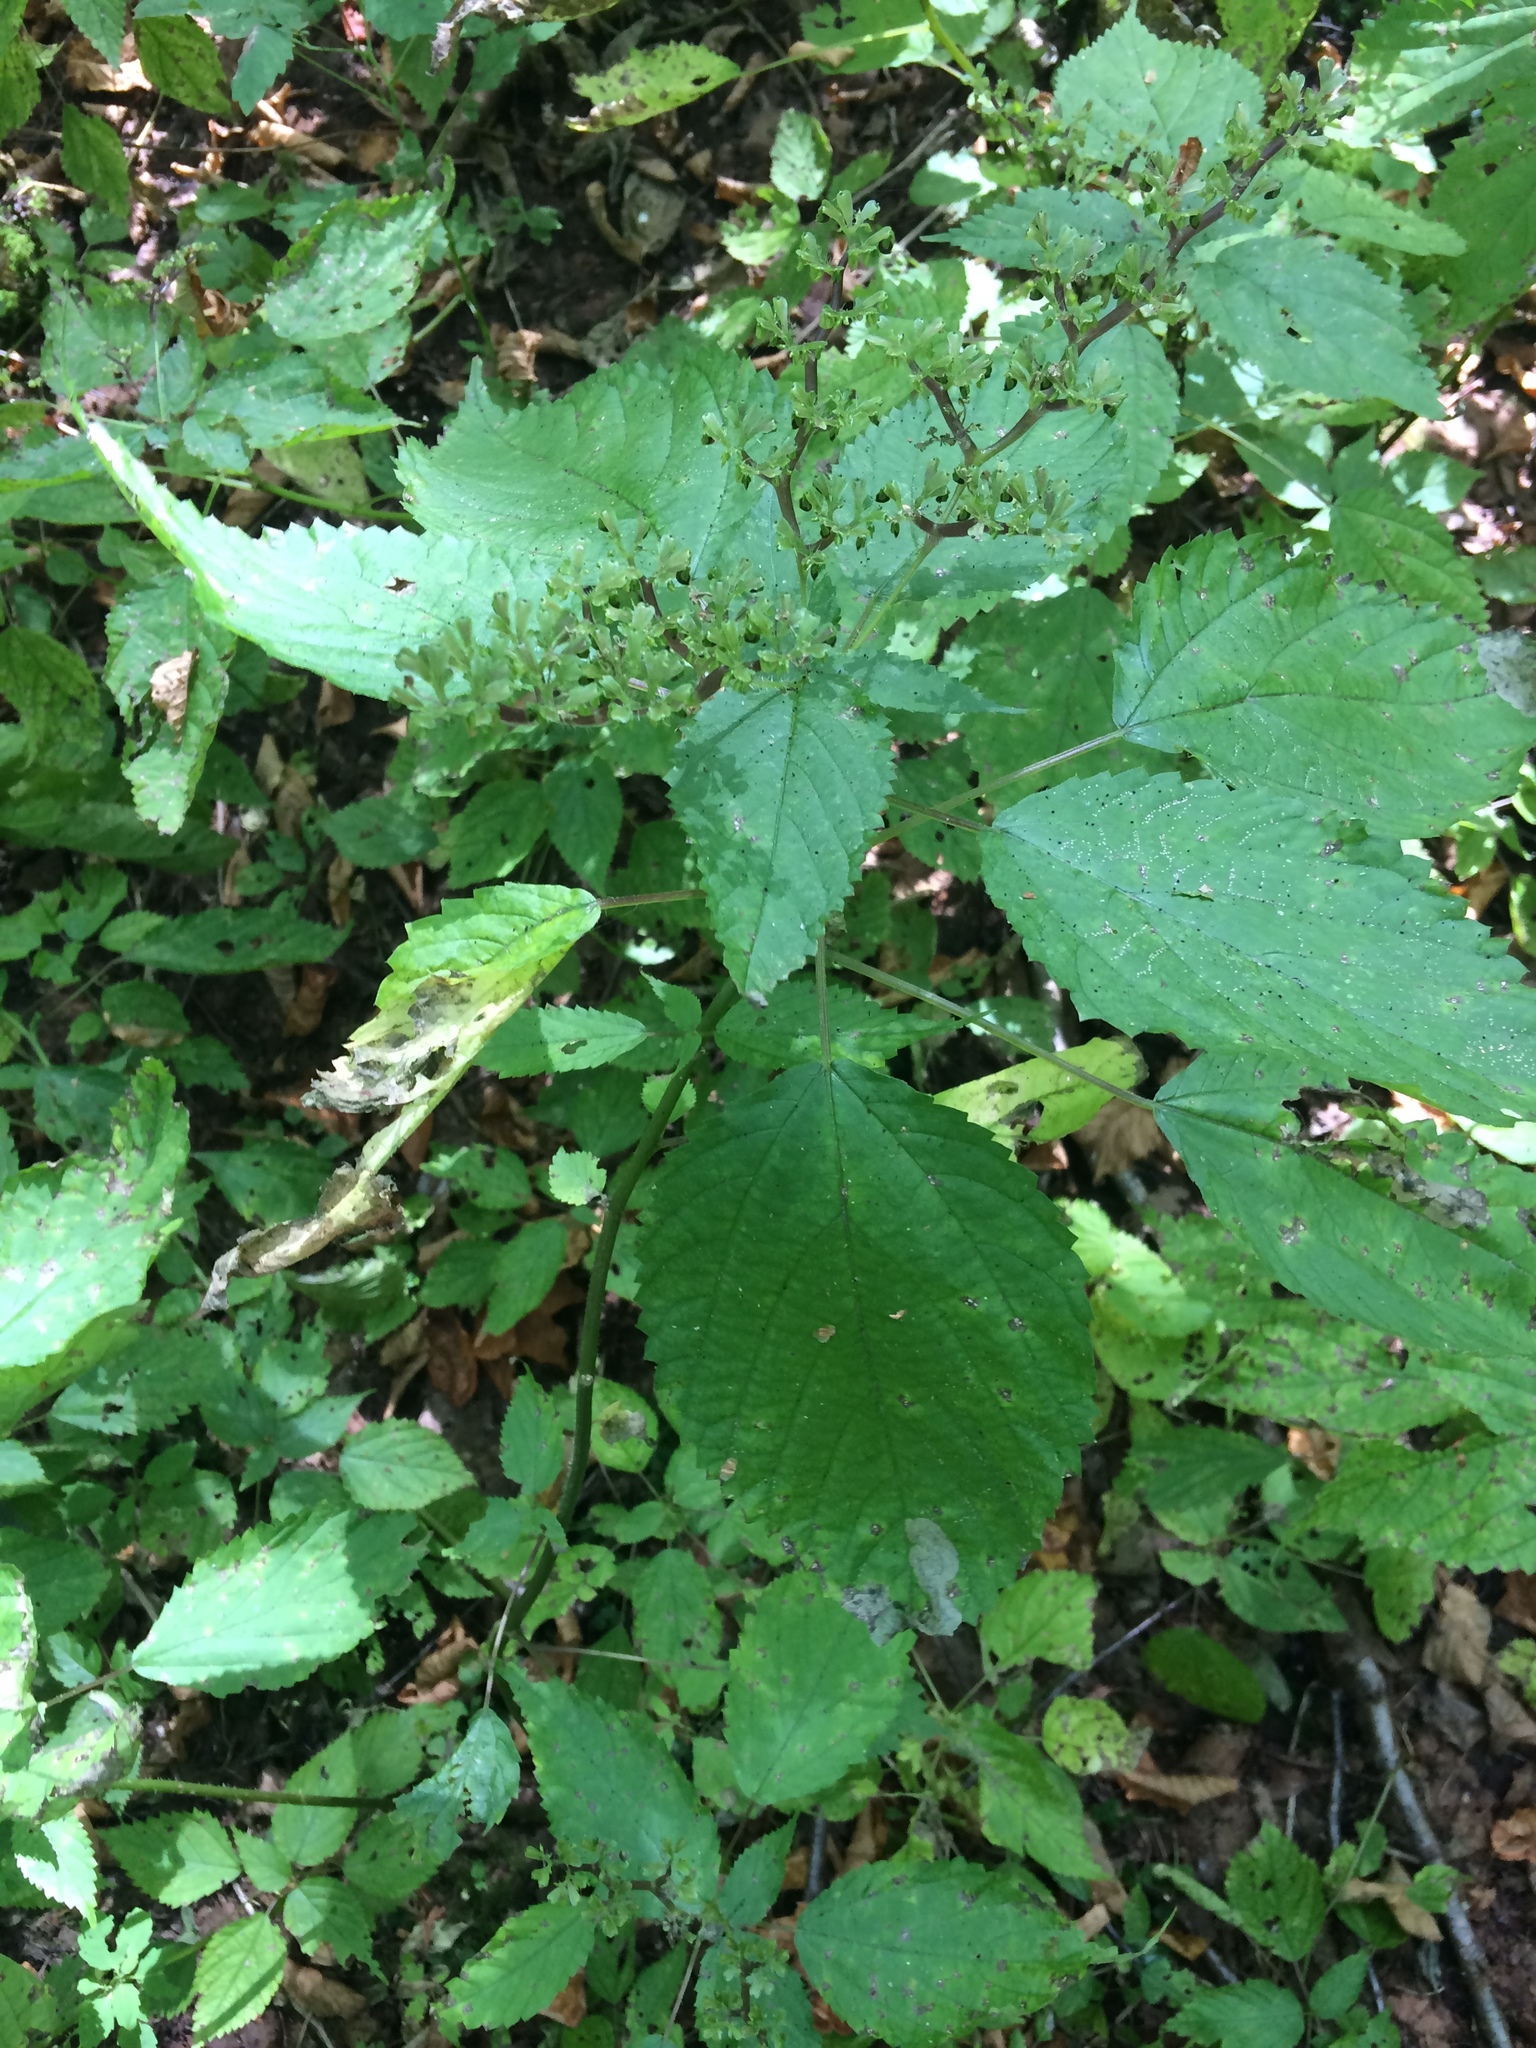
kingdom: Plantae
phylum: Tracheophyta
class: Magnoliopsida
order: Rosales
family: Urticaceae
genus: Laportea
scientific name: Laportea canadensis
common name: Canada nettle
